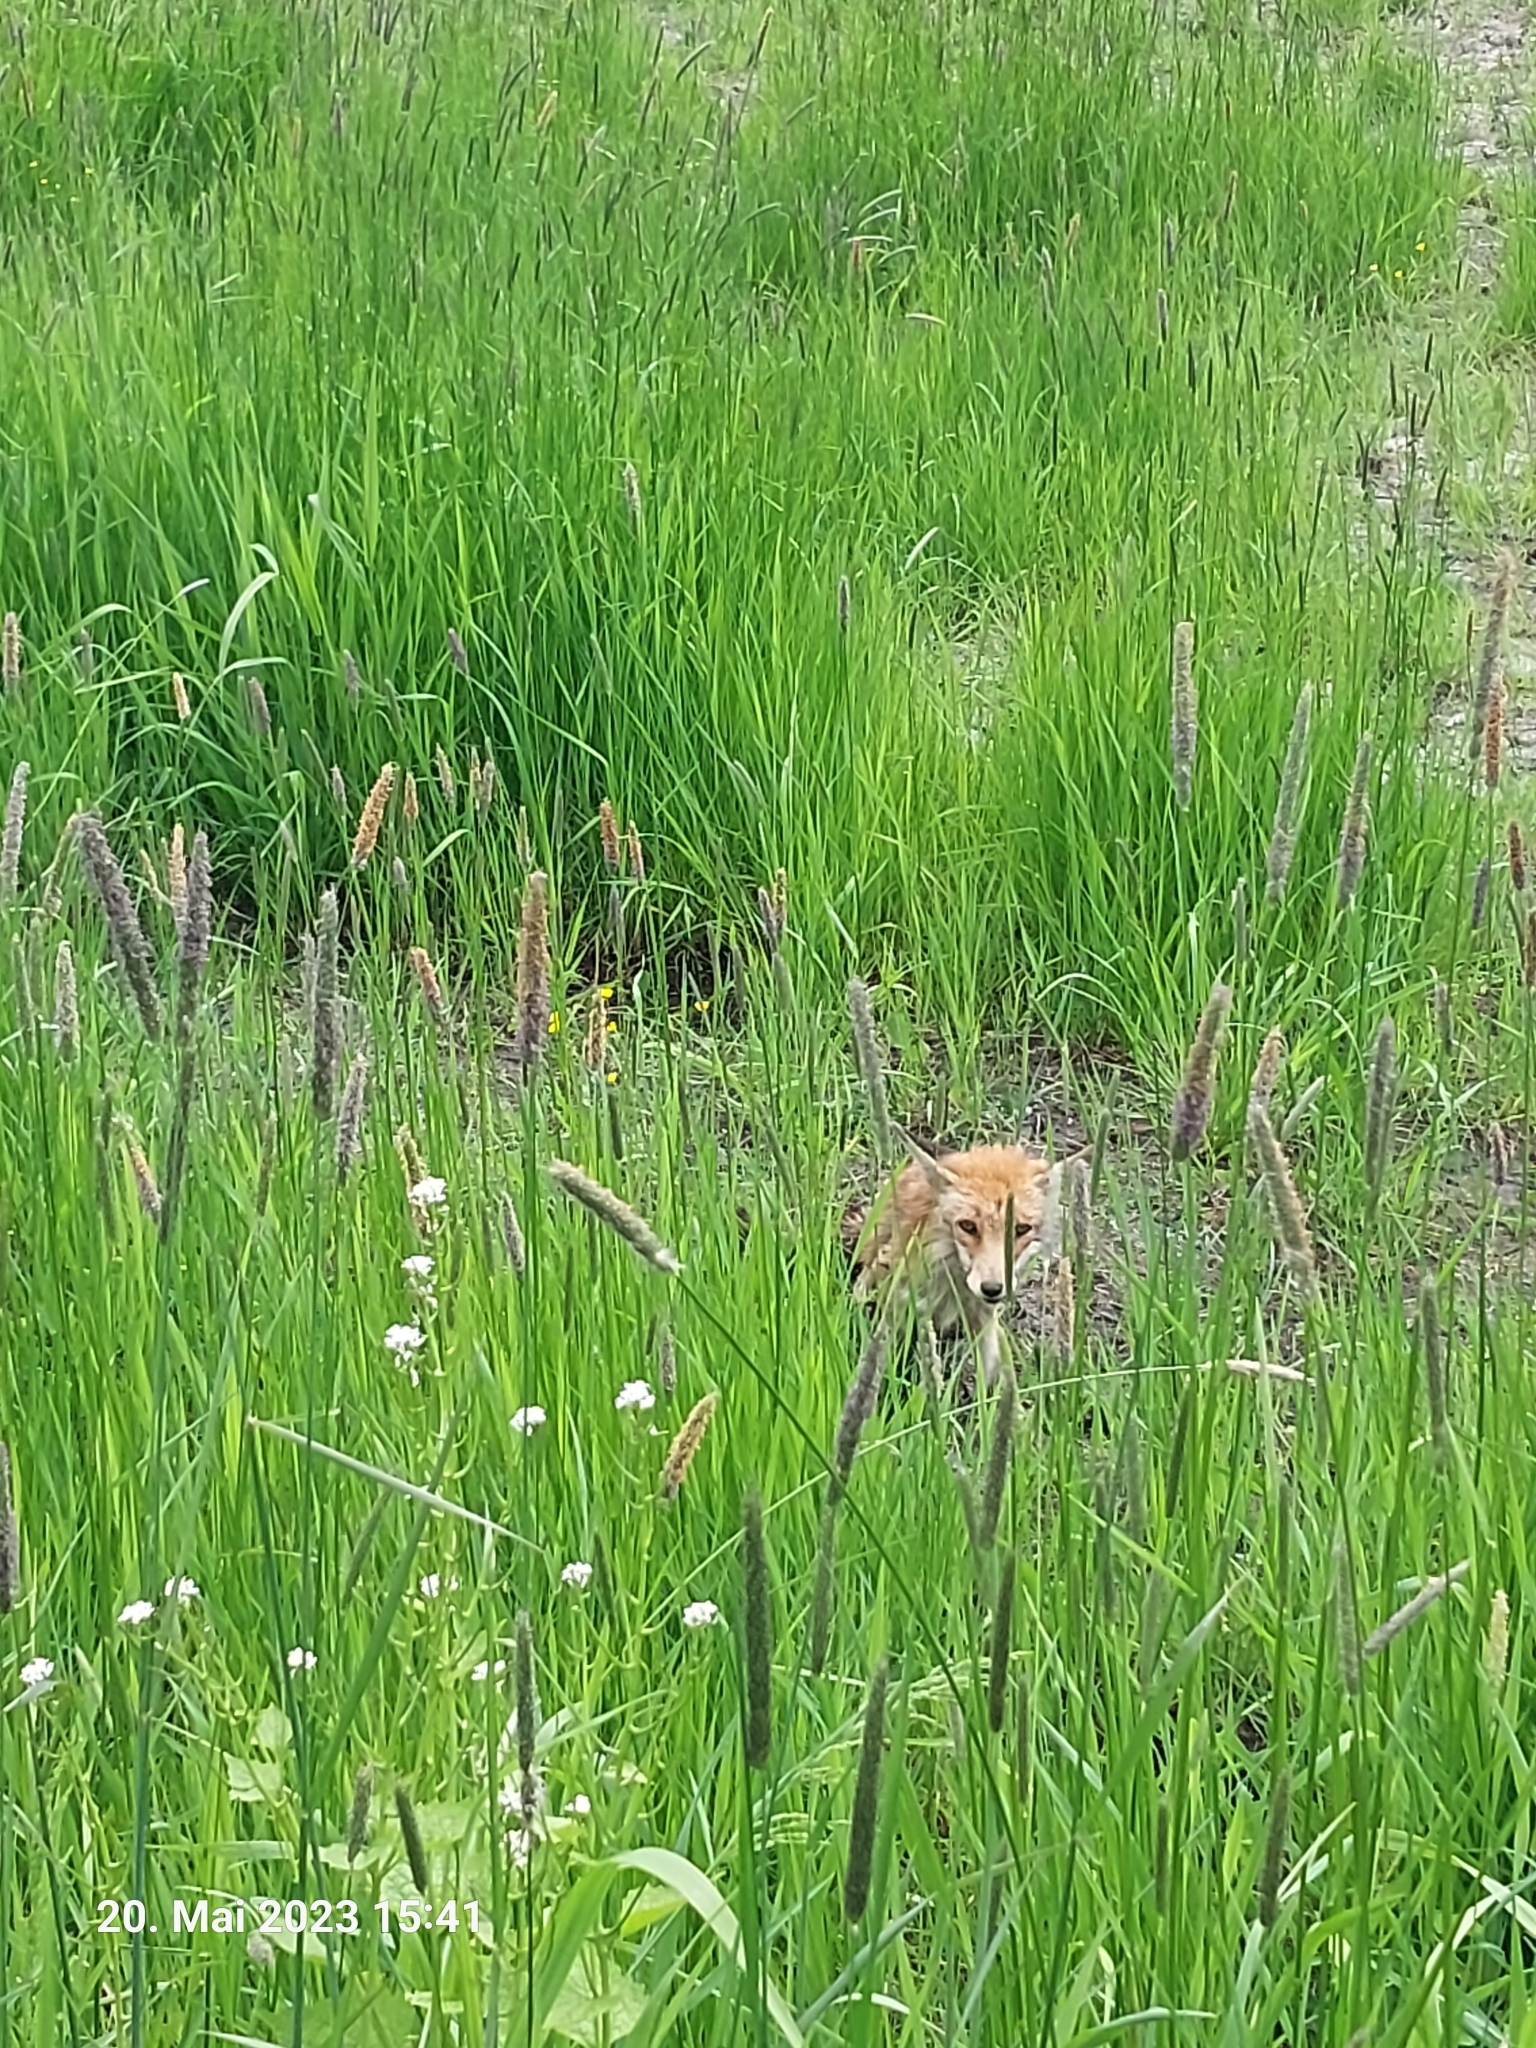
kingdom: Animalia
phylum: Chordata
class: Mammalia
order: Carnivora
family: Canidae
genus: Vulpes
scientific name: Vulpes vulpes
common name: Red fox
